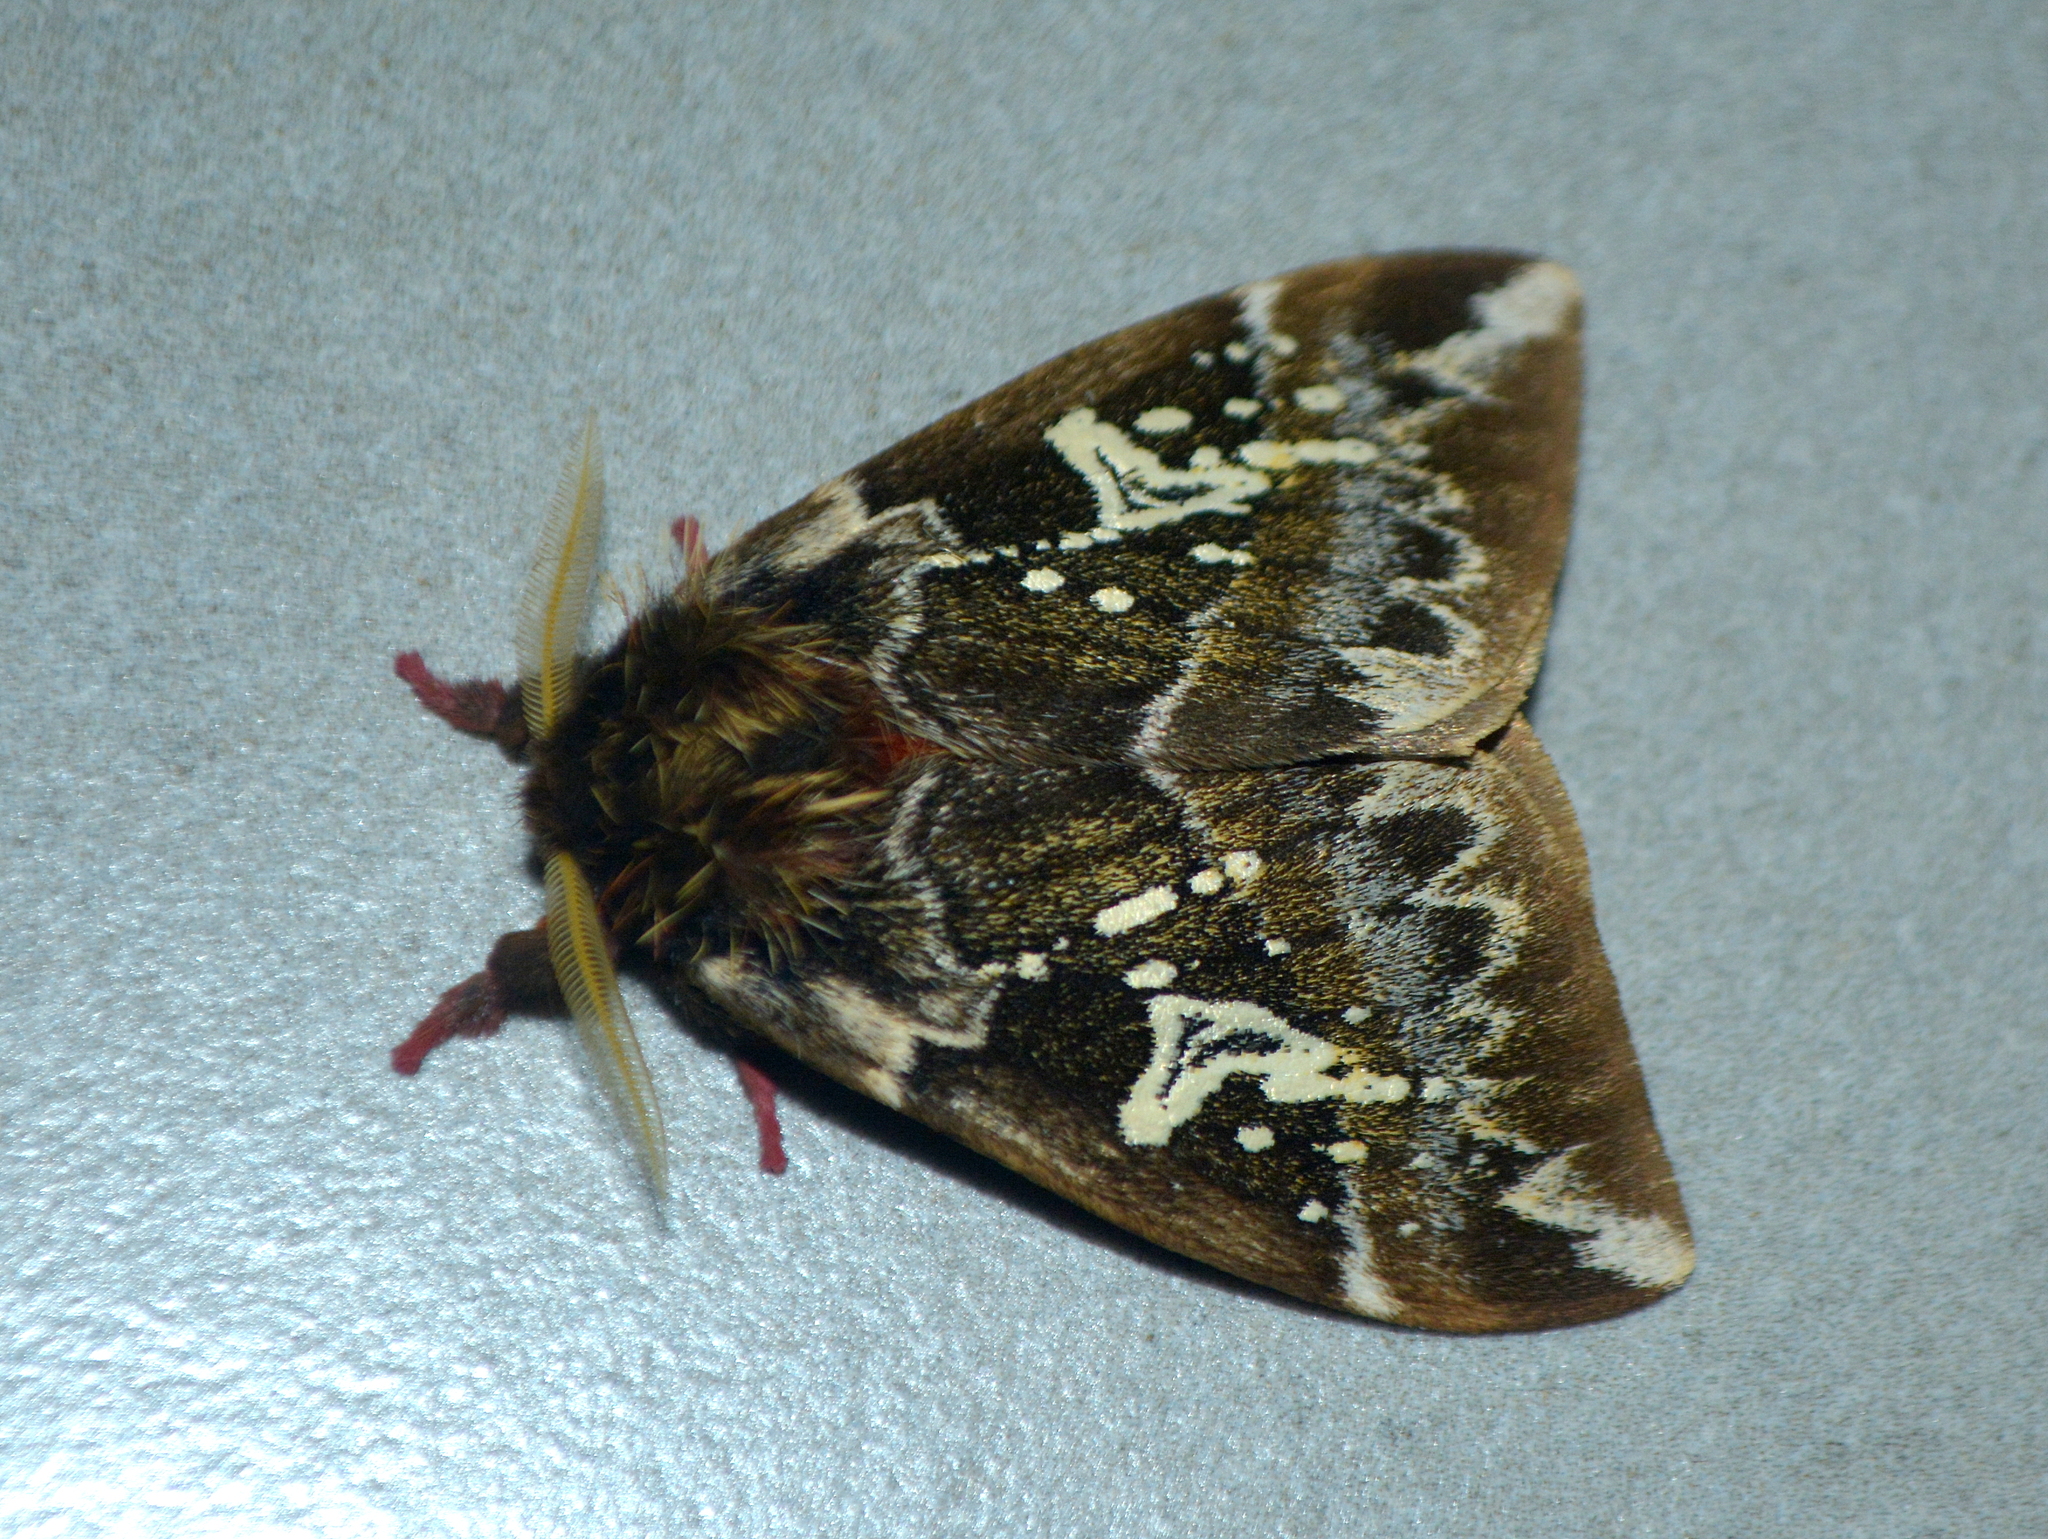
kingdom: Animalia
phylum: Arthropoda
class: Insecta
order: Lepidoptera
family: Saturniidae
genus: Dirphiopsis
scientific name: Dirphiopsis epiolina
